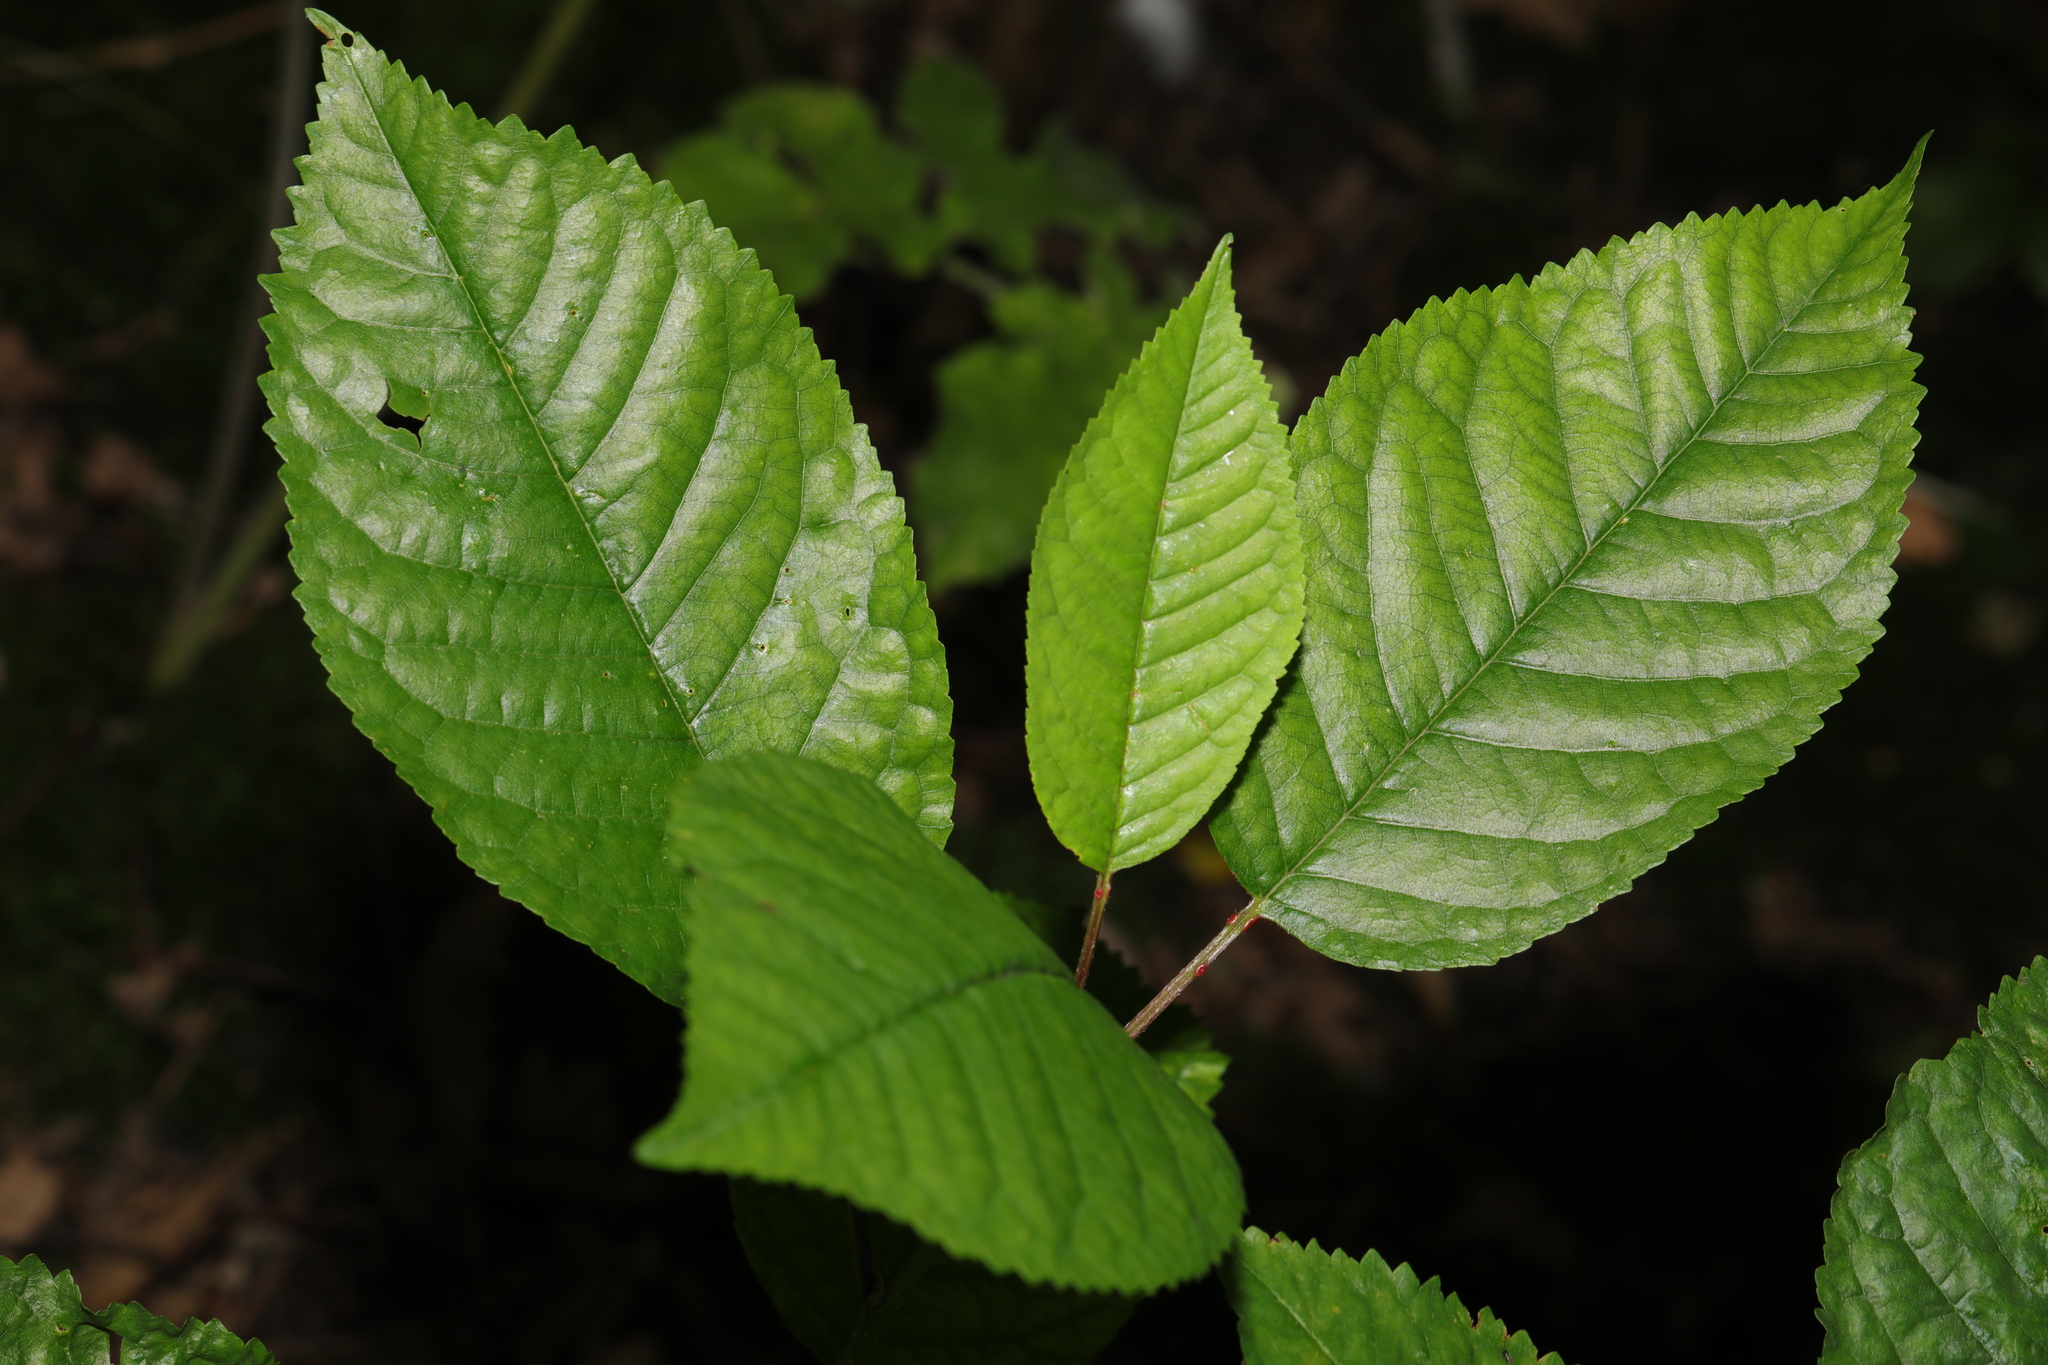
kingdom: Plantae
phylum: Tracheophyta
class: Magnoliopsida
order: Rosales
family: Rosaceae
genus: Prunus
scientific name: Prunus avium
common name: Sweet cherry
